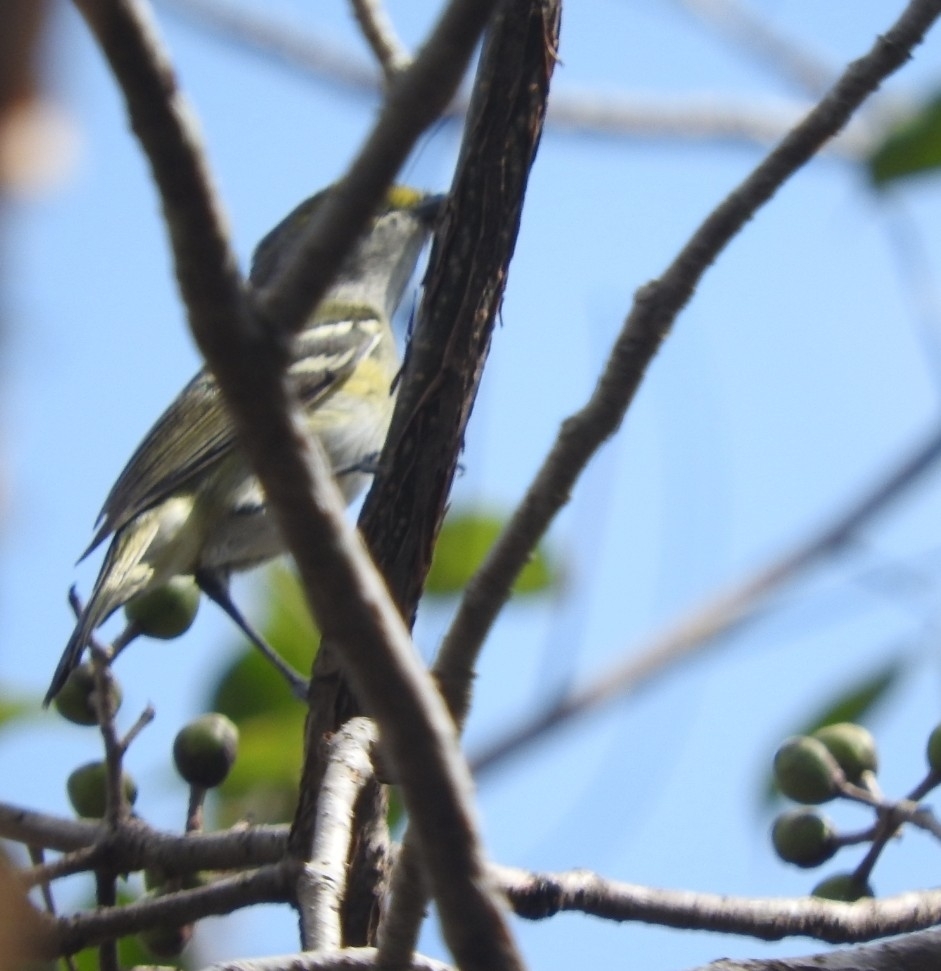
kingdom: Animalia
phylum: Chordata
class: Aves
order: Passeriformes
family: Vireonidae
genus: Vireo
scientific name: Vireo griseus
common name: White-eyed vireo
